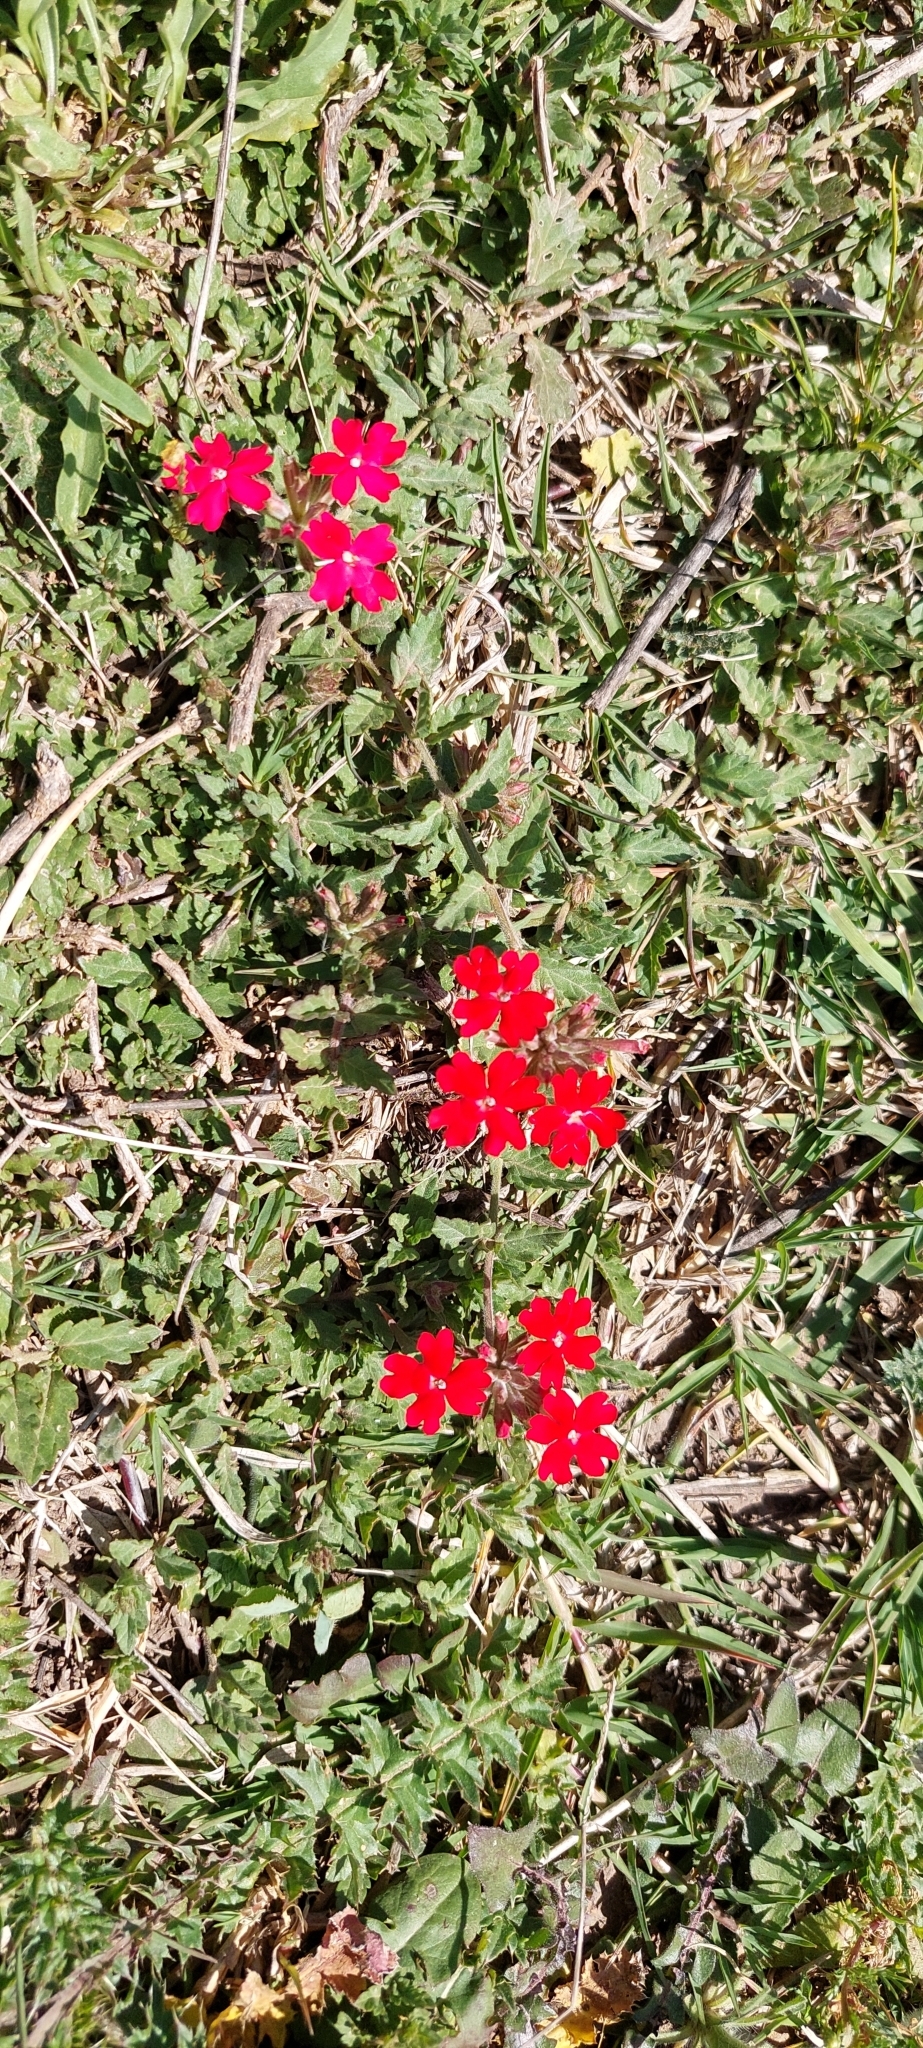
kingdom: Plantae
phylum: Tracheophyta
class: Magnoliopsida
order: Lamiales
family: Verbenaceae
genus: Verbena
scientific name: Verbena peruviana
